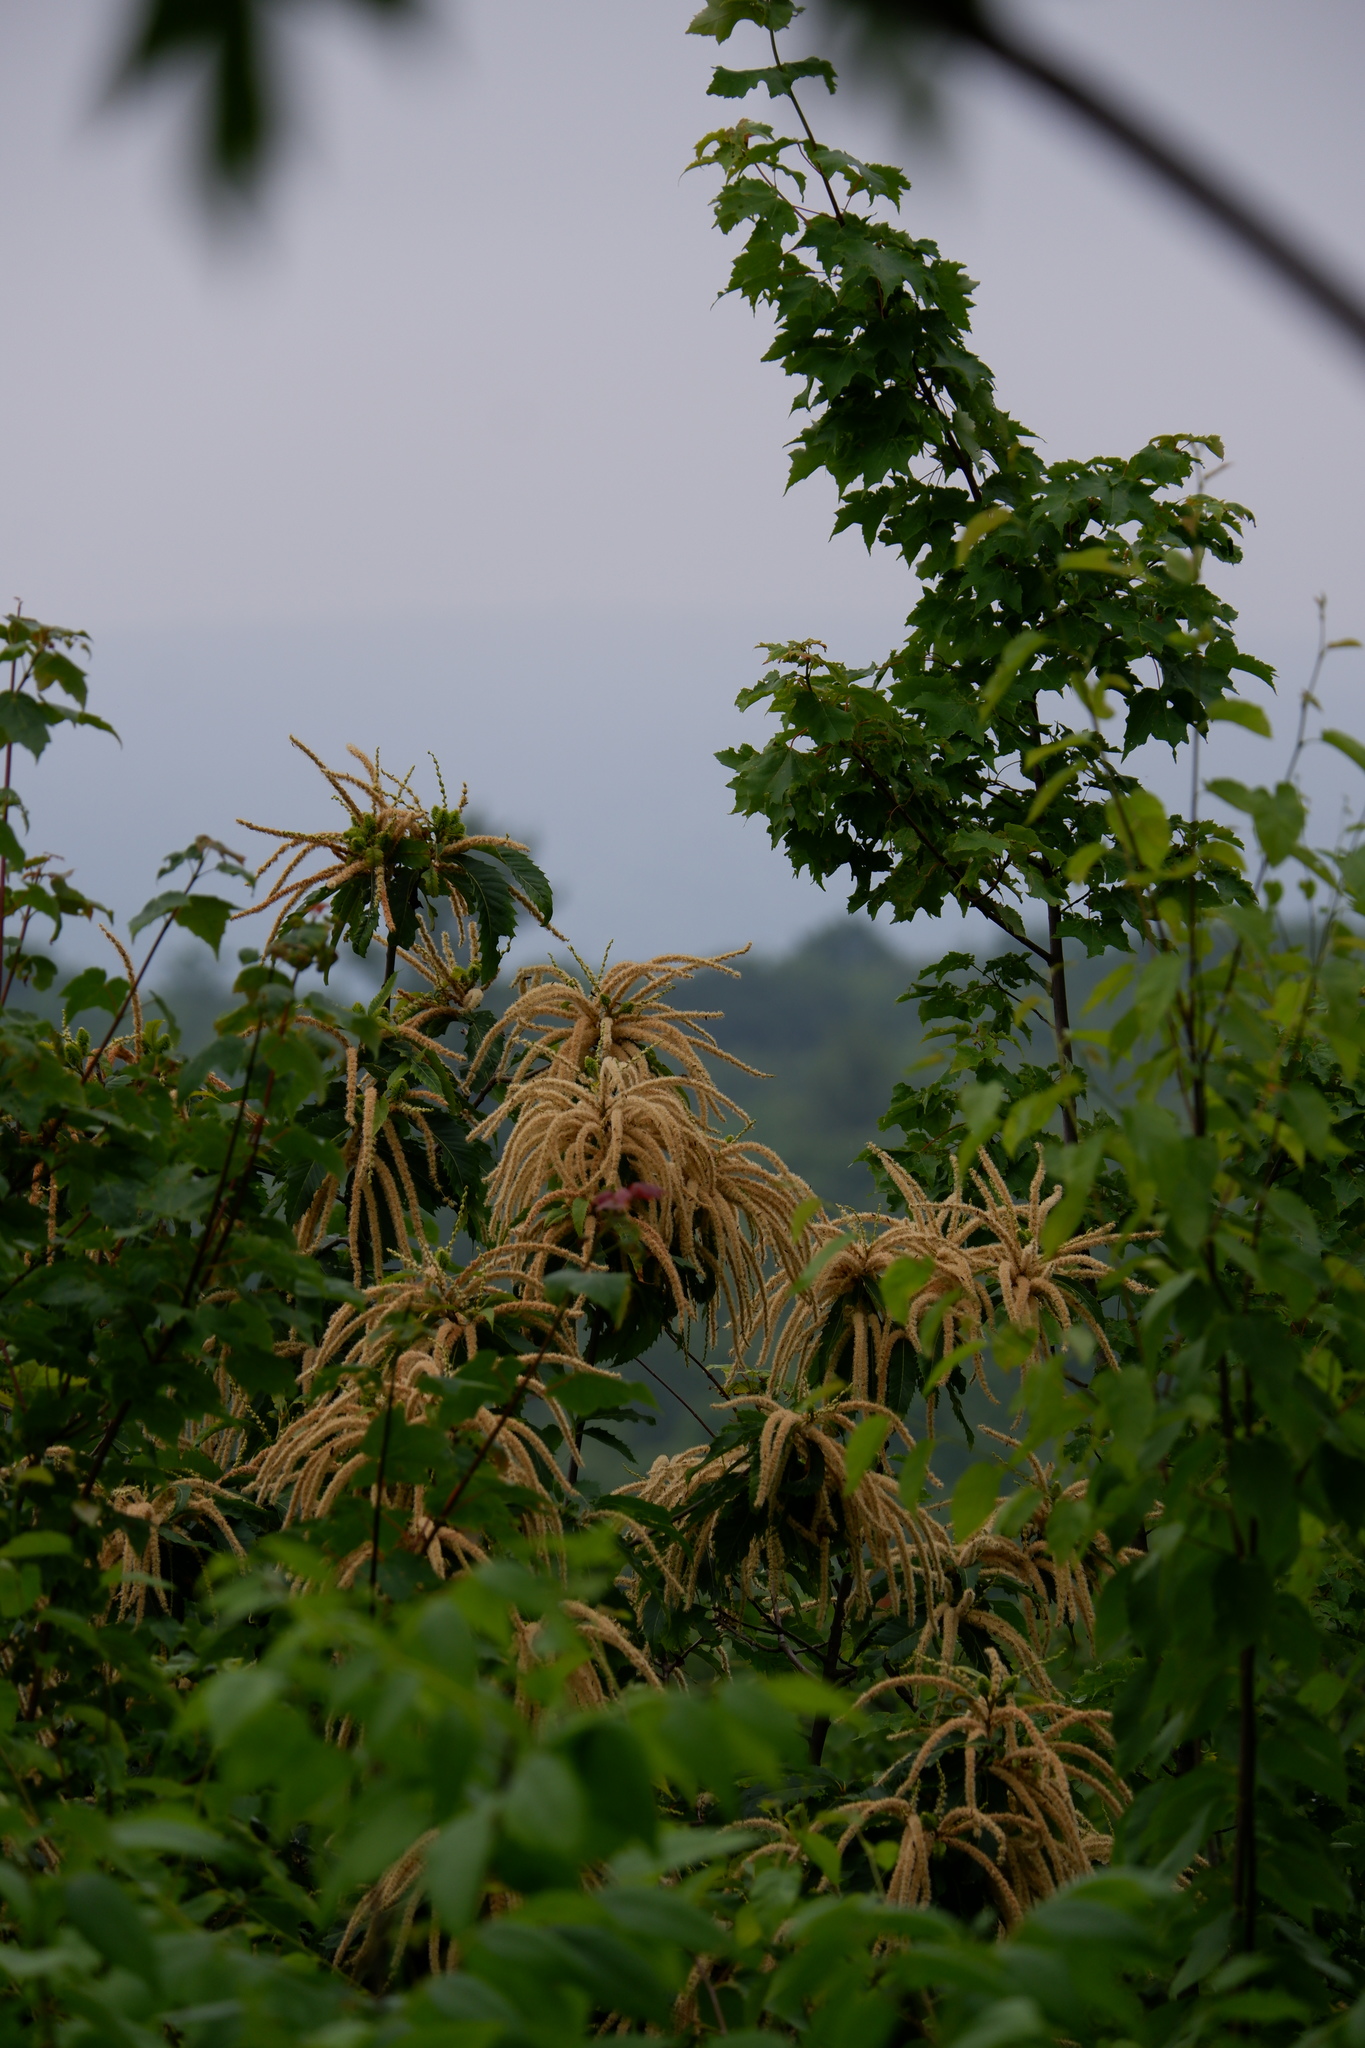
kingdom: Plantae
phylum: Tracheophyta
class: Magnoliopsida
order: Fagales
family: Fagaceae
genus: Castanea
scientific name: Castanea dentata
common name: American chestnut
